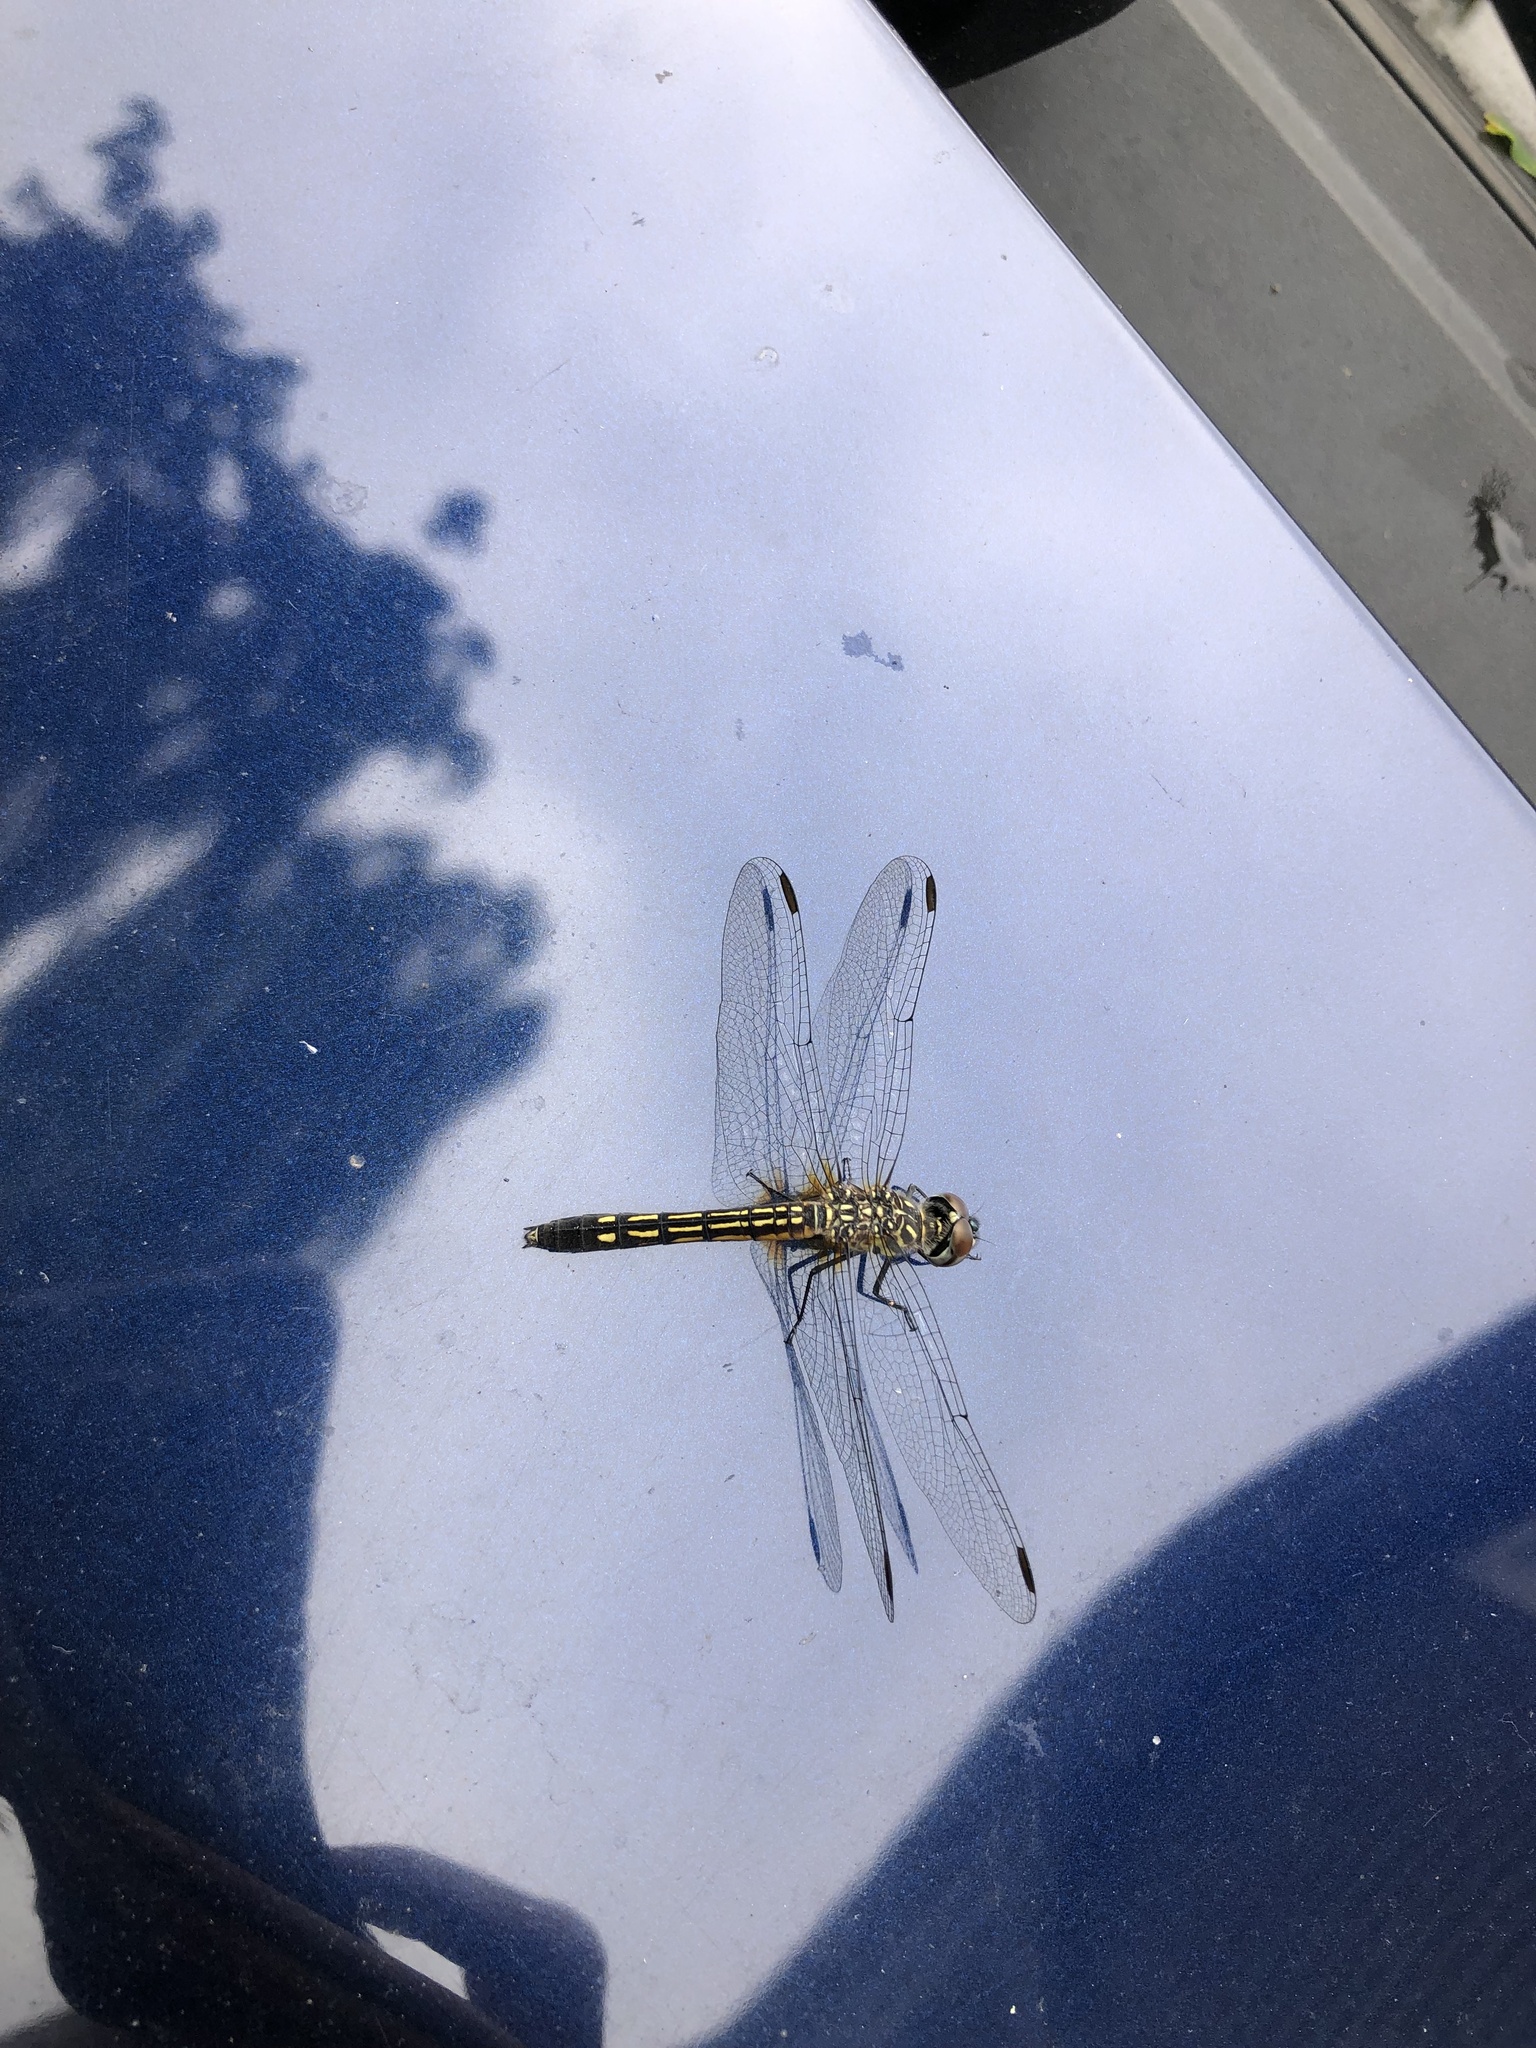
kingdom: Animalia
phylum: Arthropoda
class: Insecta
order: Odonata
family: Libellulidae
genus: Pachydiplax
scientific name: Pachydiplax longipennis
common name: Blue dasher
